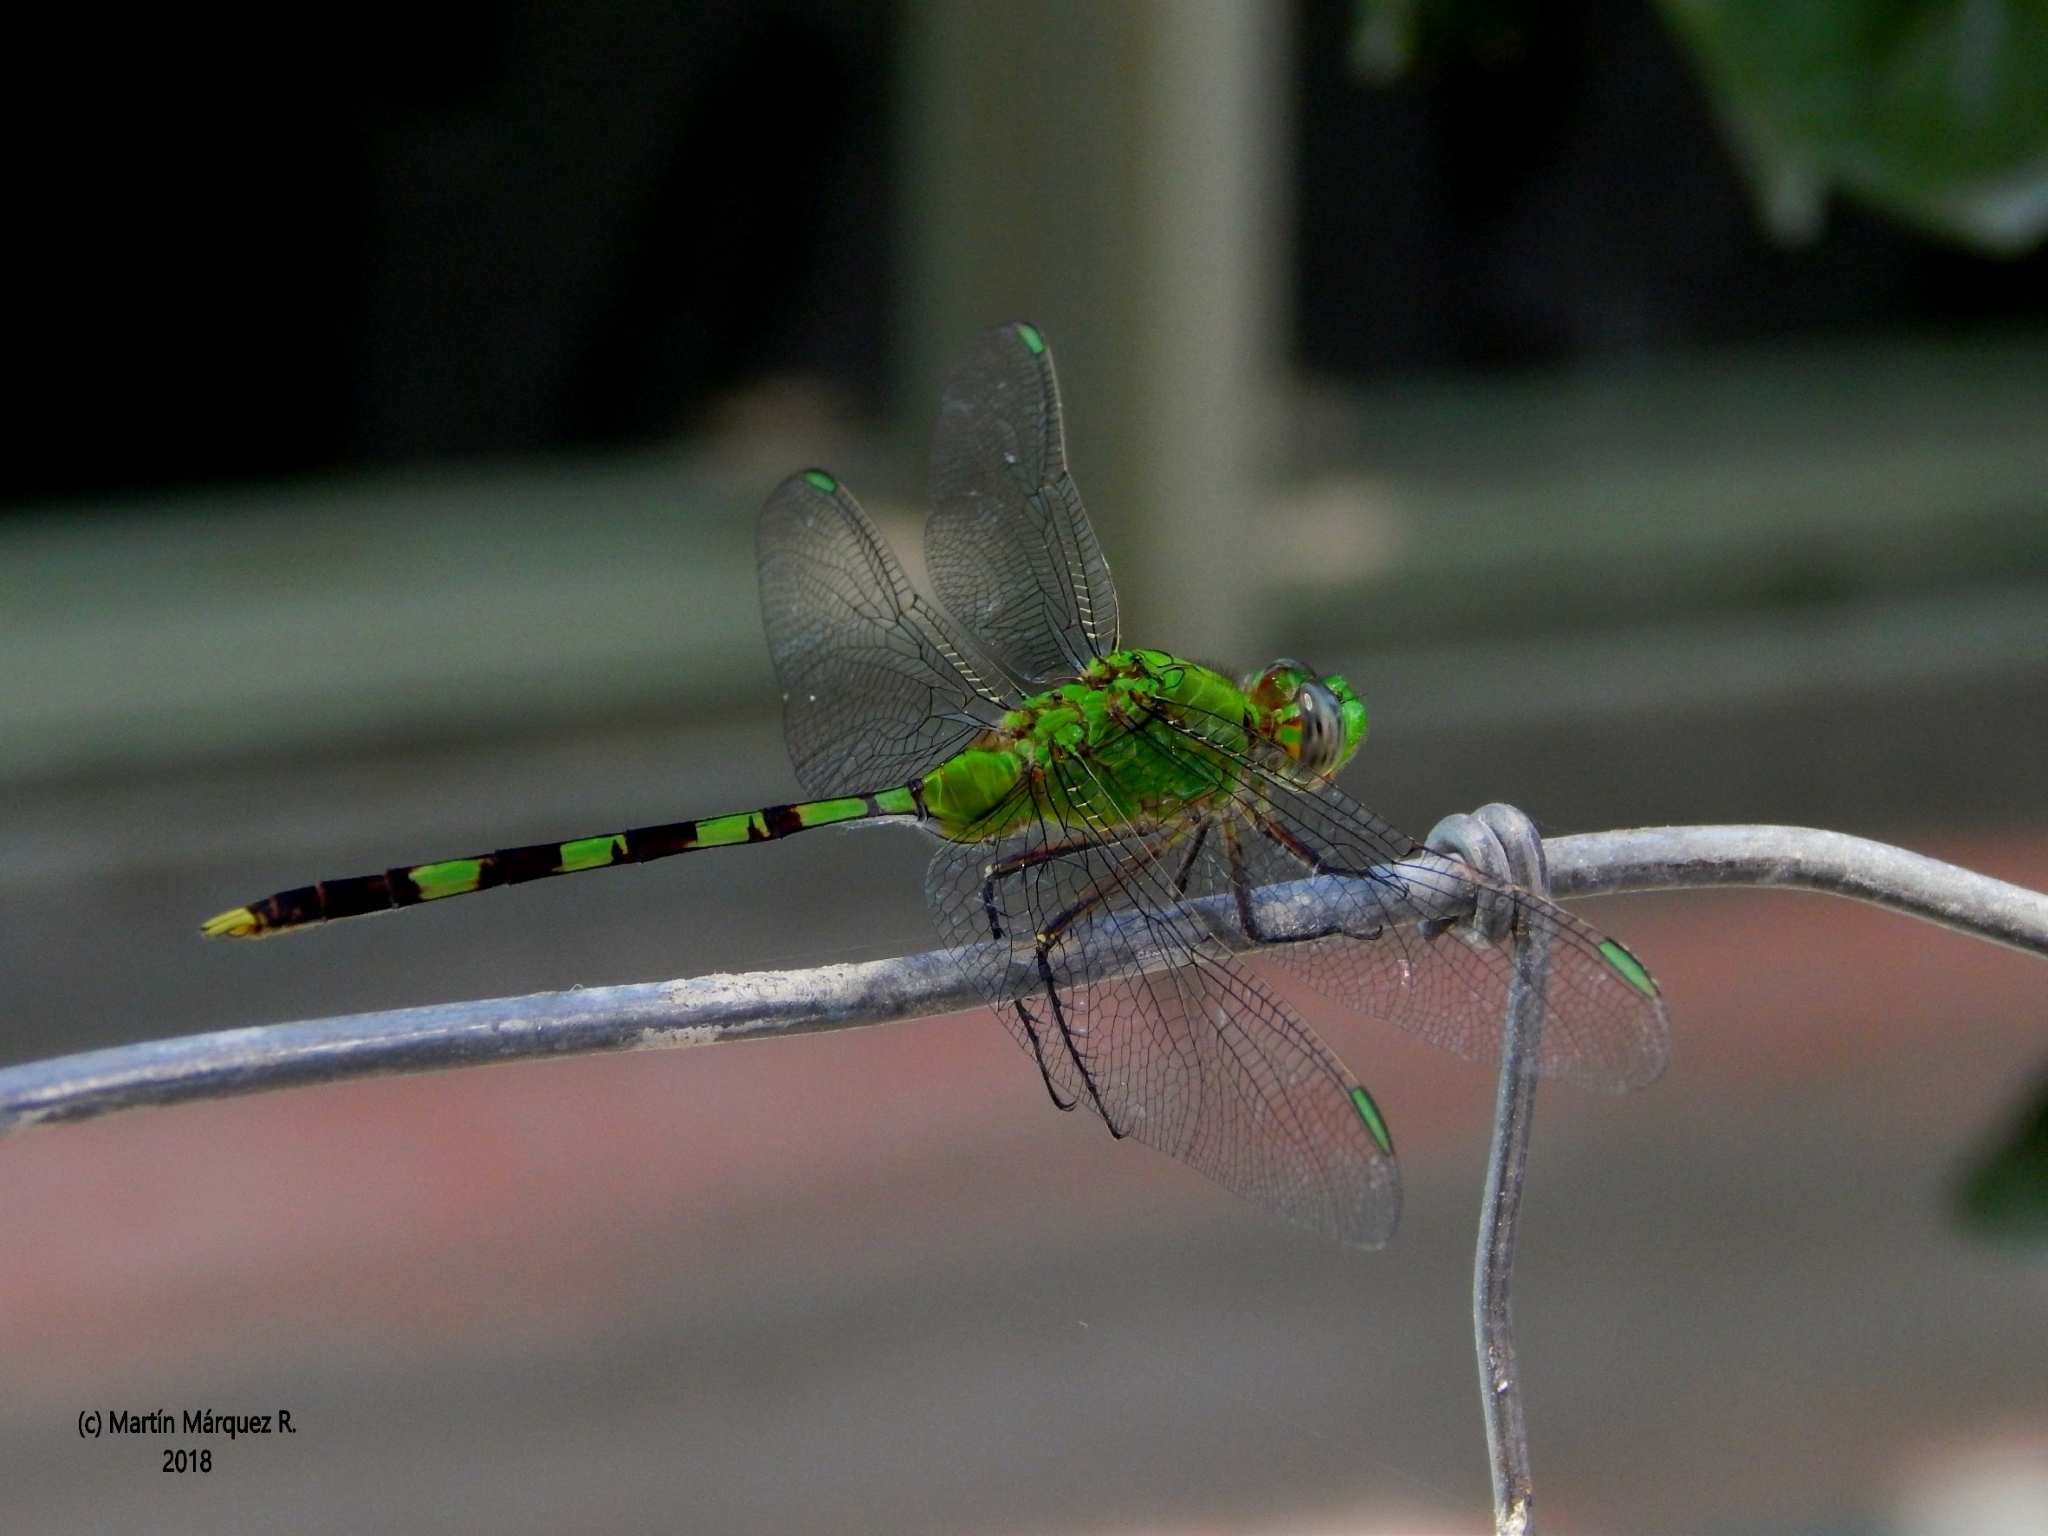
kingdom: Animalia
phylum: Arthropoda
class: Insecta
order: Odonata
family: Libellulidae
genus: Erythemis
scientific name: Erythemis vesiculosa
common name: Great pondhawk
